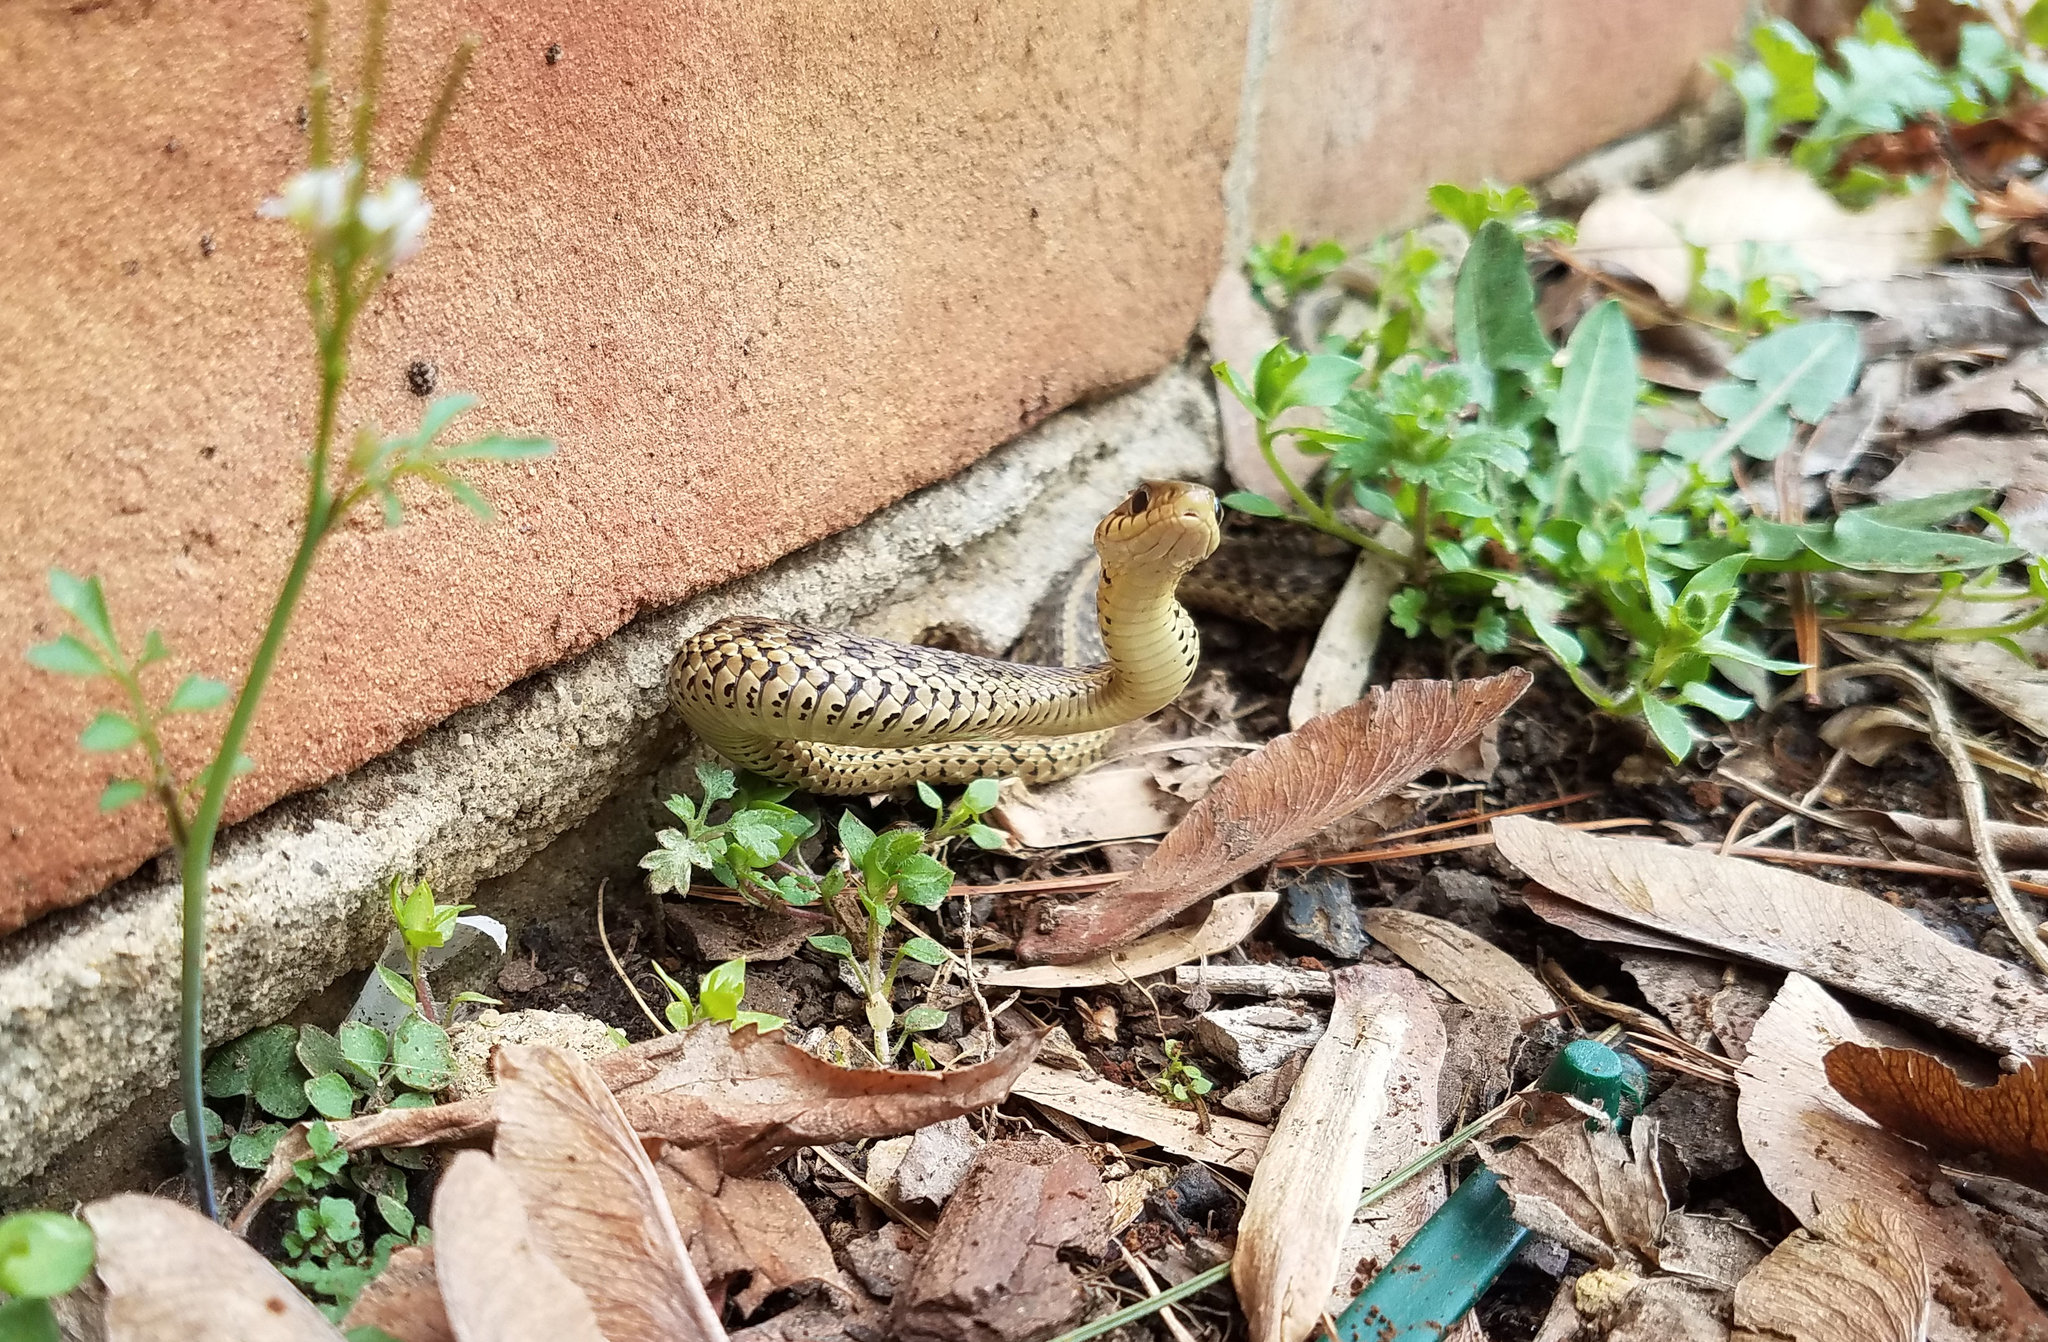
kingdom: Animalia
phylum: Chordata
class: Squamata
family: Colubridae
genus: Thamnophis
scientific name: Thamnophis sirtalis
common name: Common garter snake
